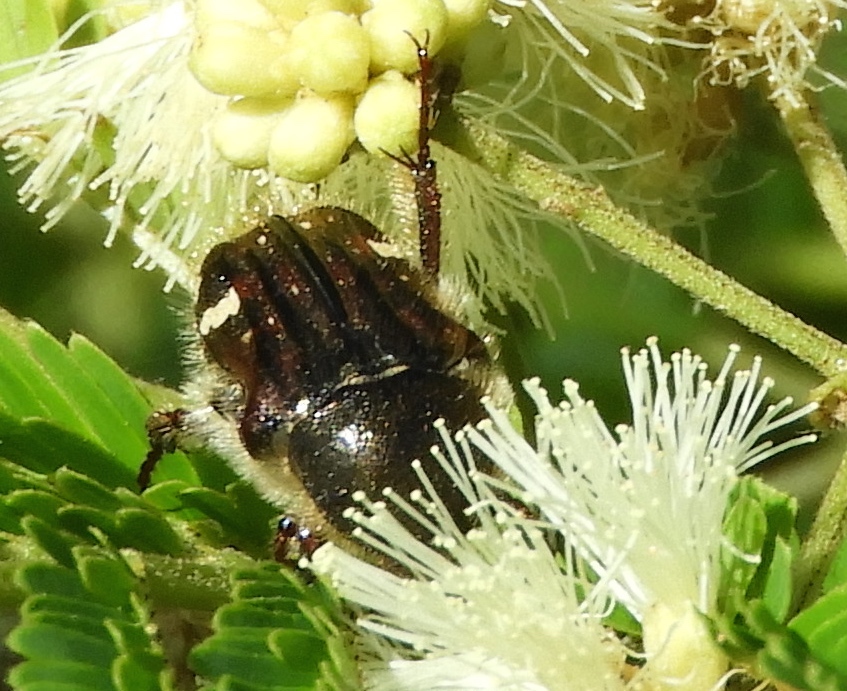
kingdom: Animalia
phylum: Arthropoda
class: Insecta
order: Coleoptera
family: Scarabaeidae
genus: Euphoria
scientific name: Euphoria pulchella
